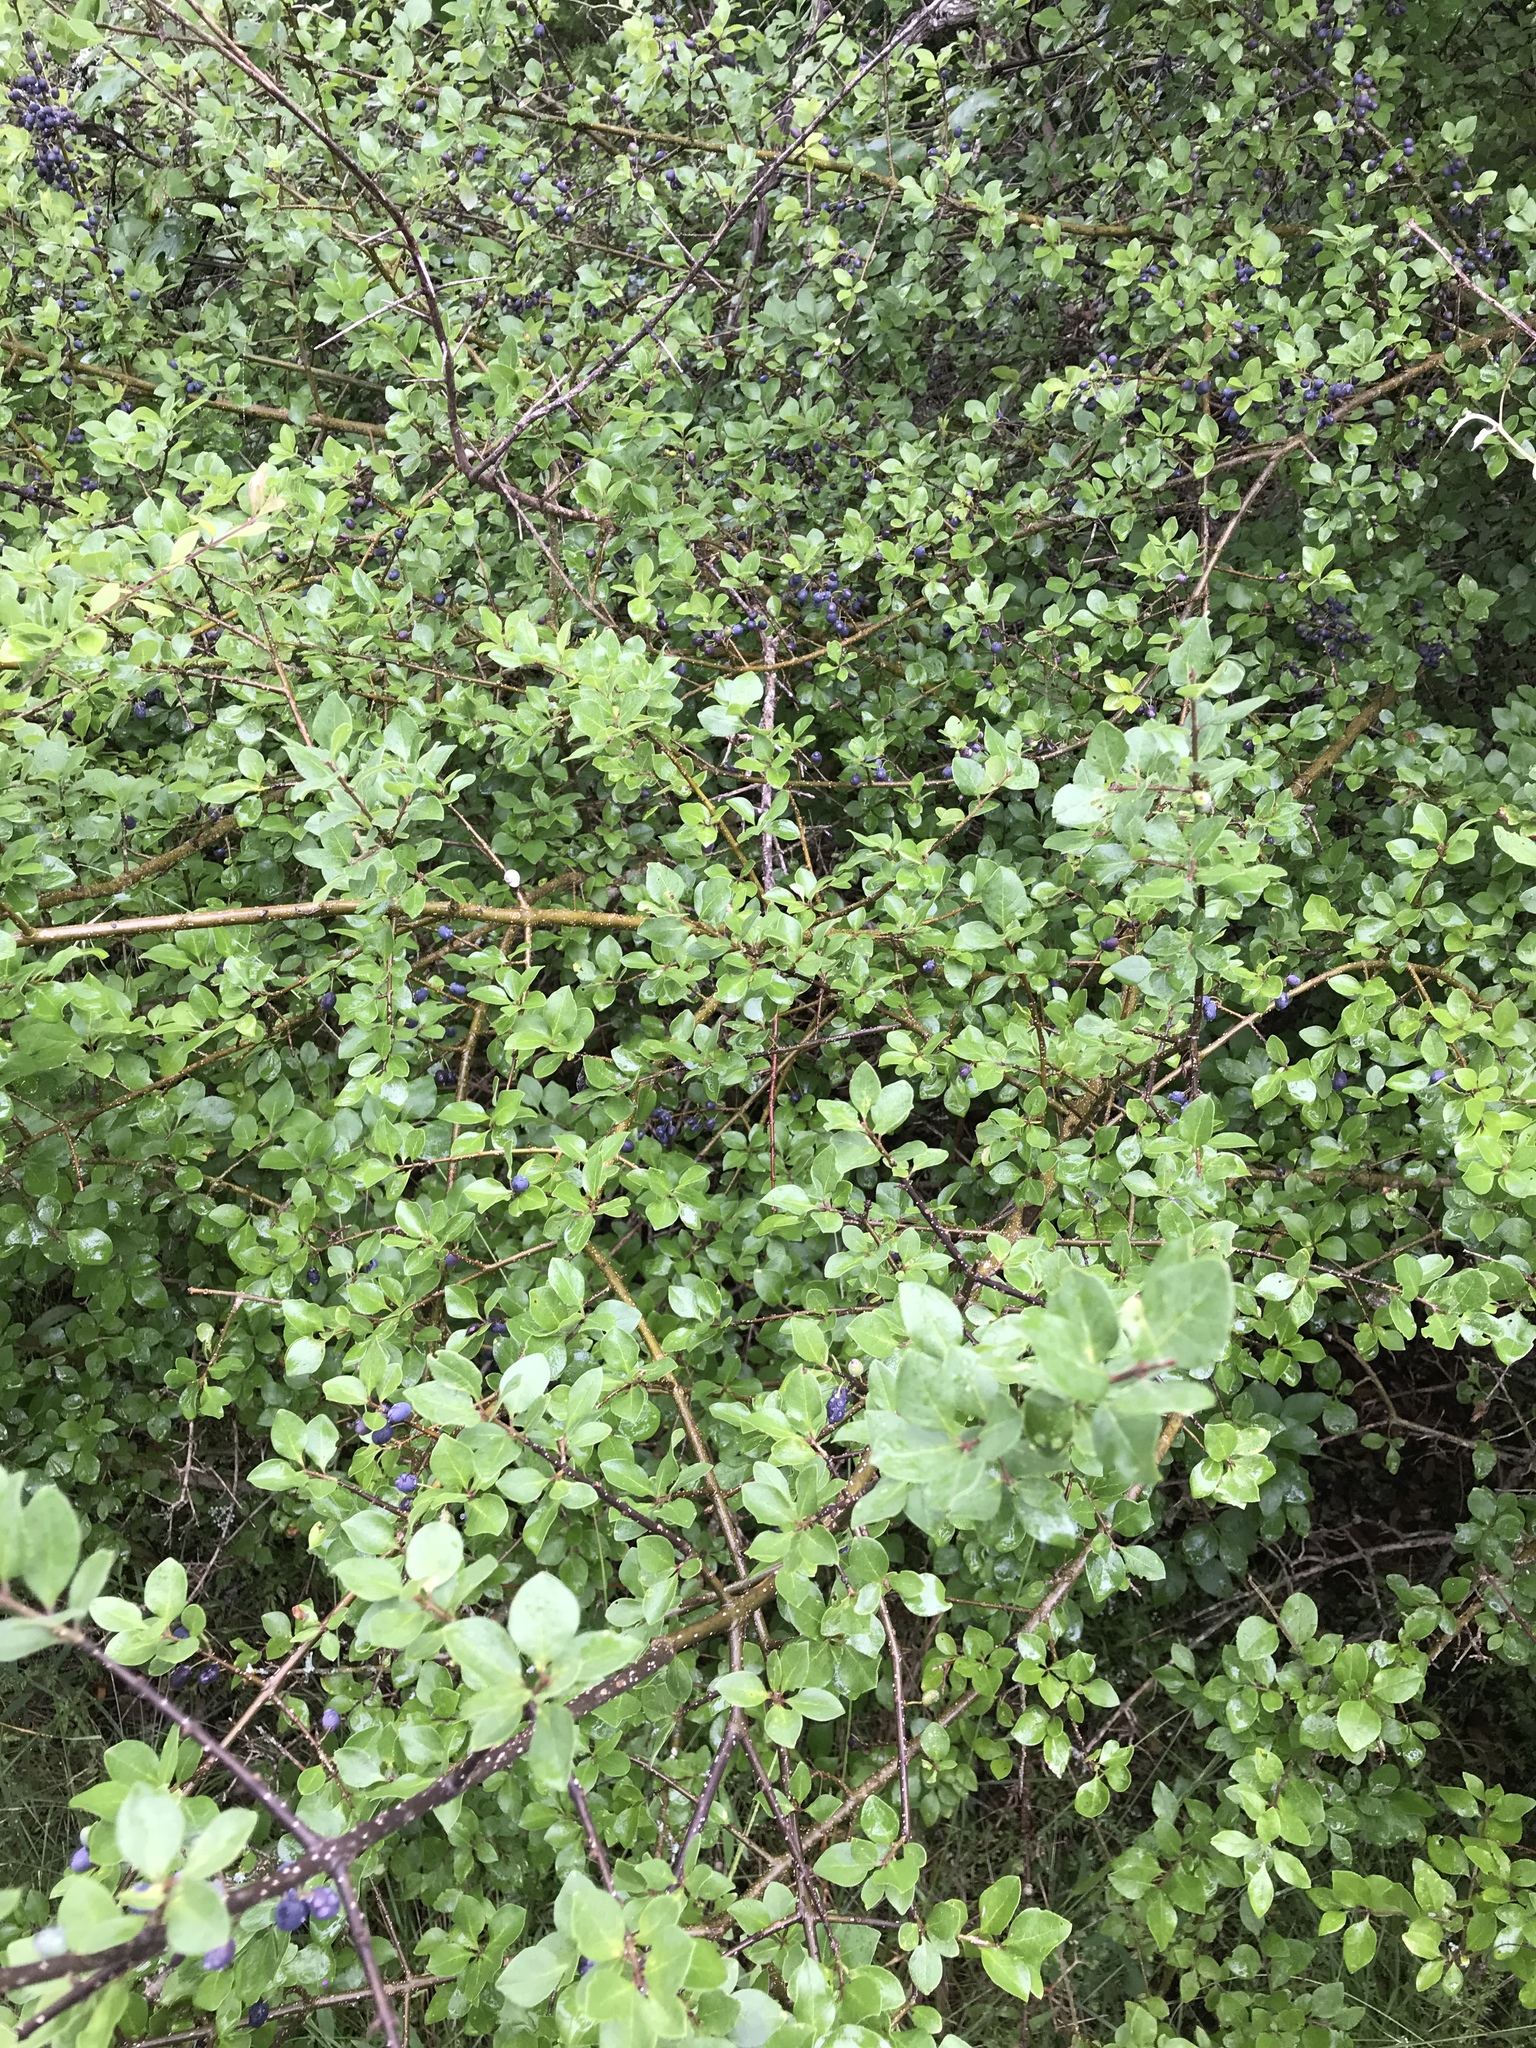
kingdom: Plantae
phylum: Tracheophyta
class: Magnoliopsida
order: Lamiales
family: Oleaceae
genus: Forestiera
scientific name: Forestiera pubescens
